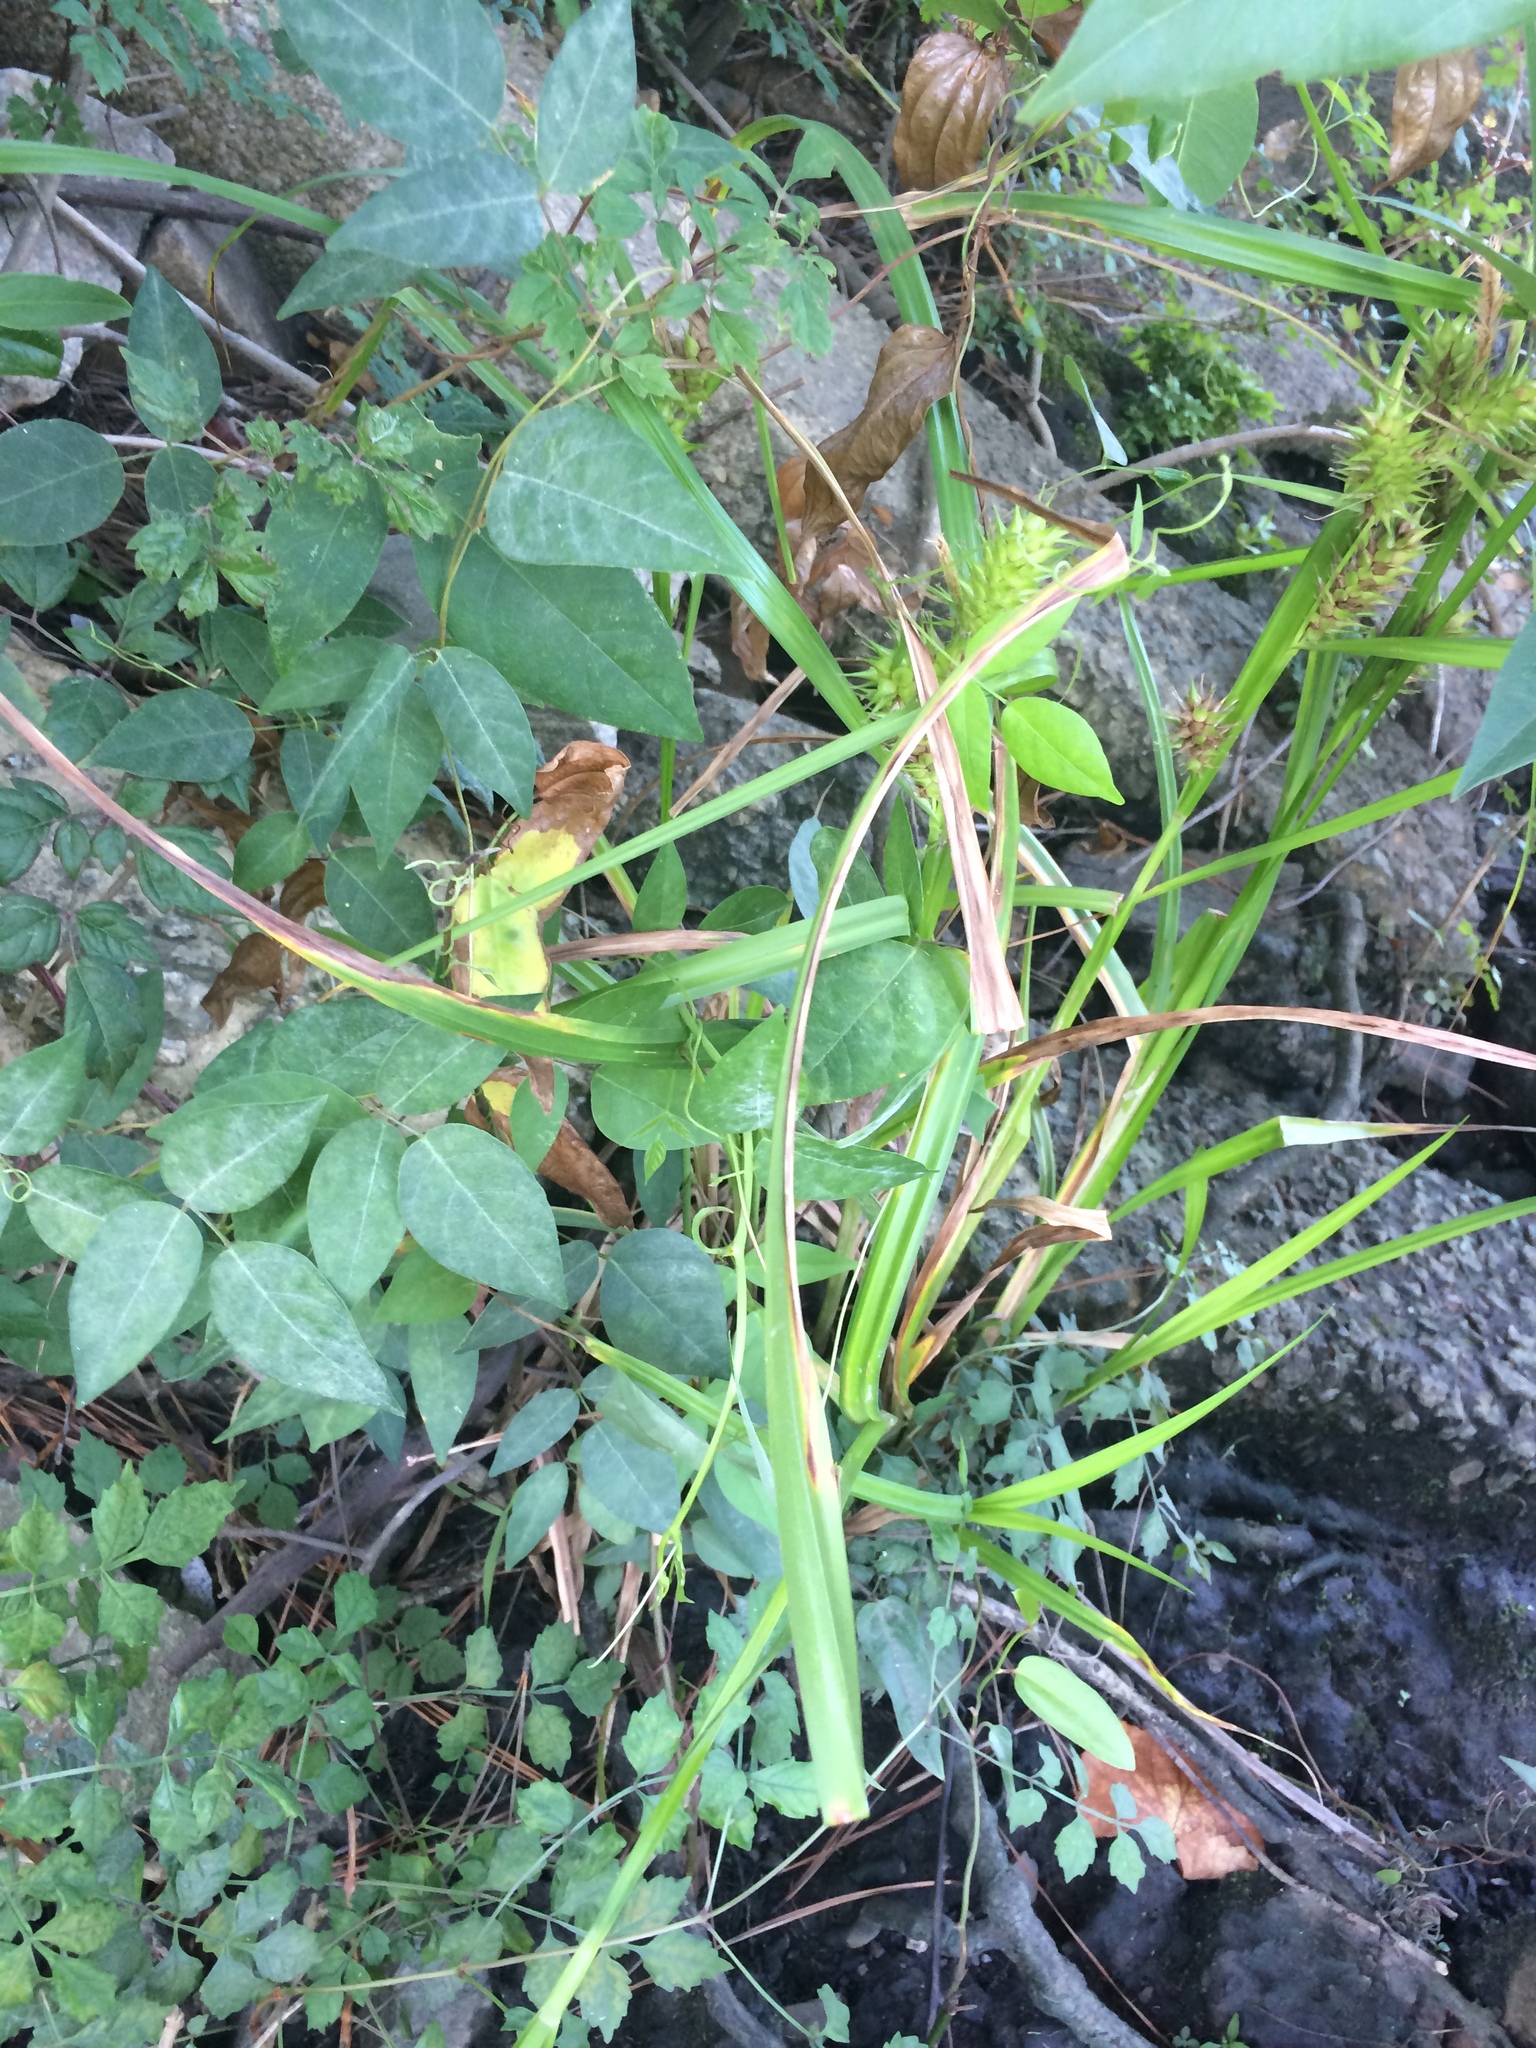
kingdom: Plantae
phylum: Tracheophyta
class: Liliopsida
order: Poales
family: Cyperaceae
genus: Carex
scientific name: Carex lupulina
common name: Hop sedge
